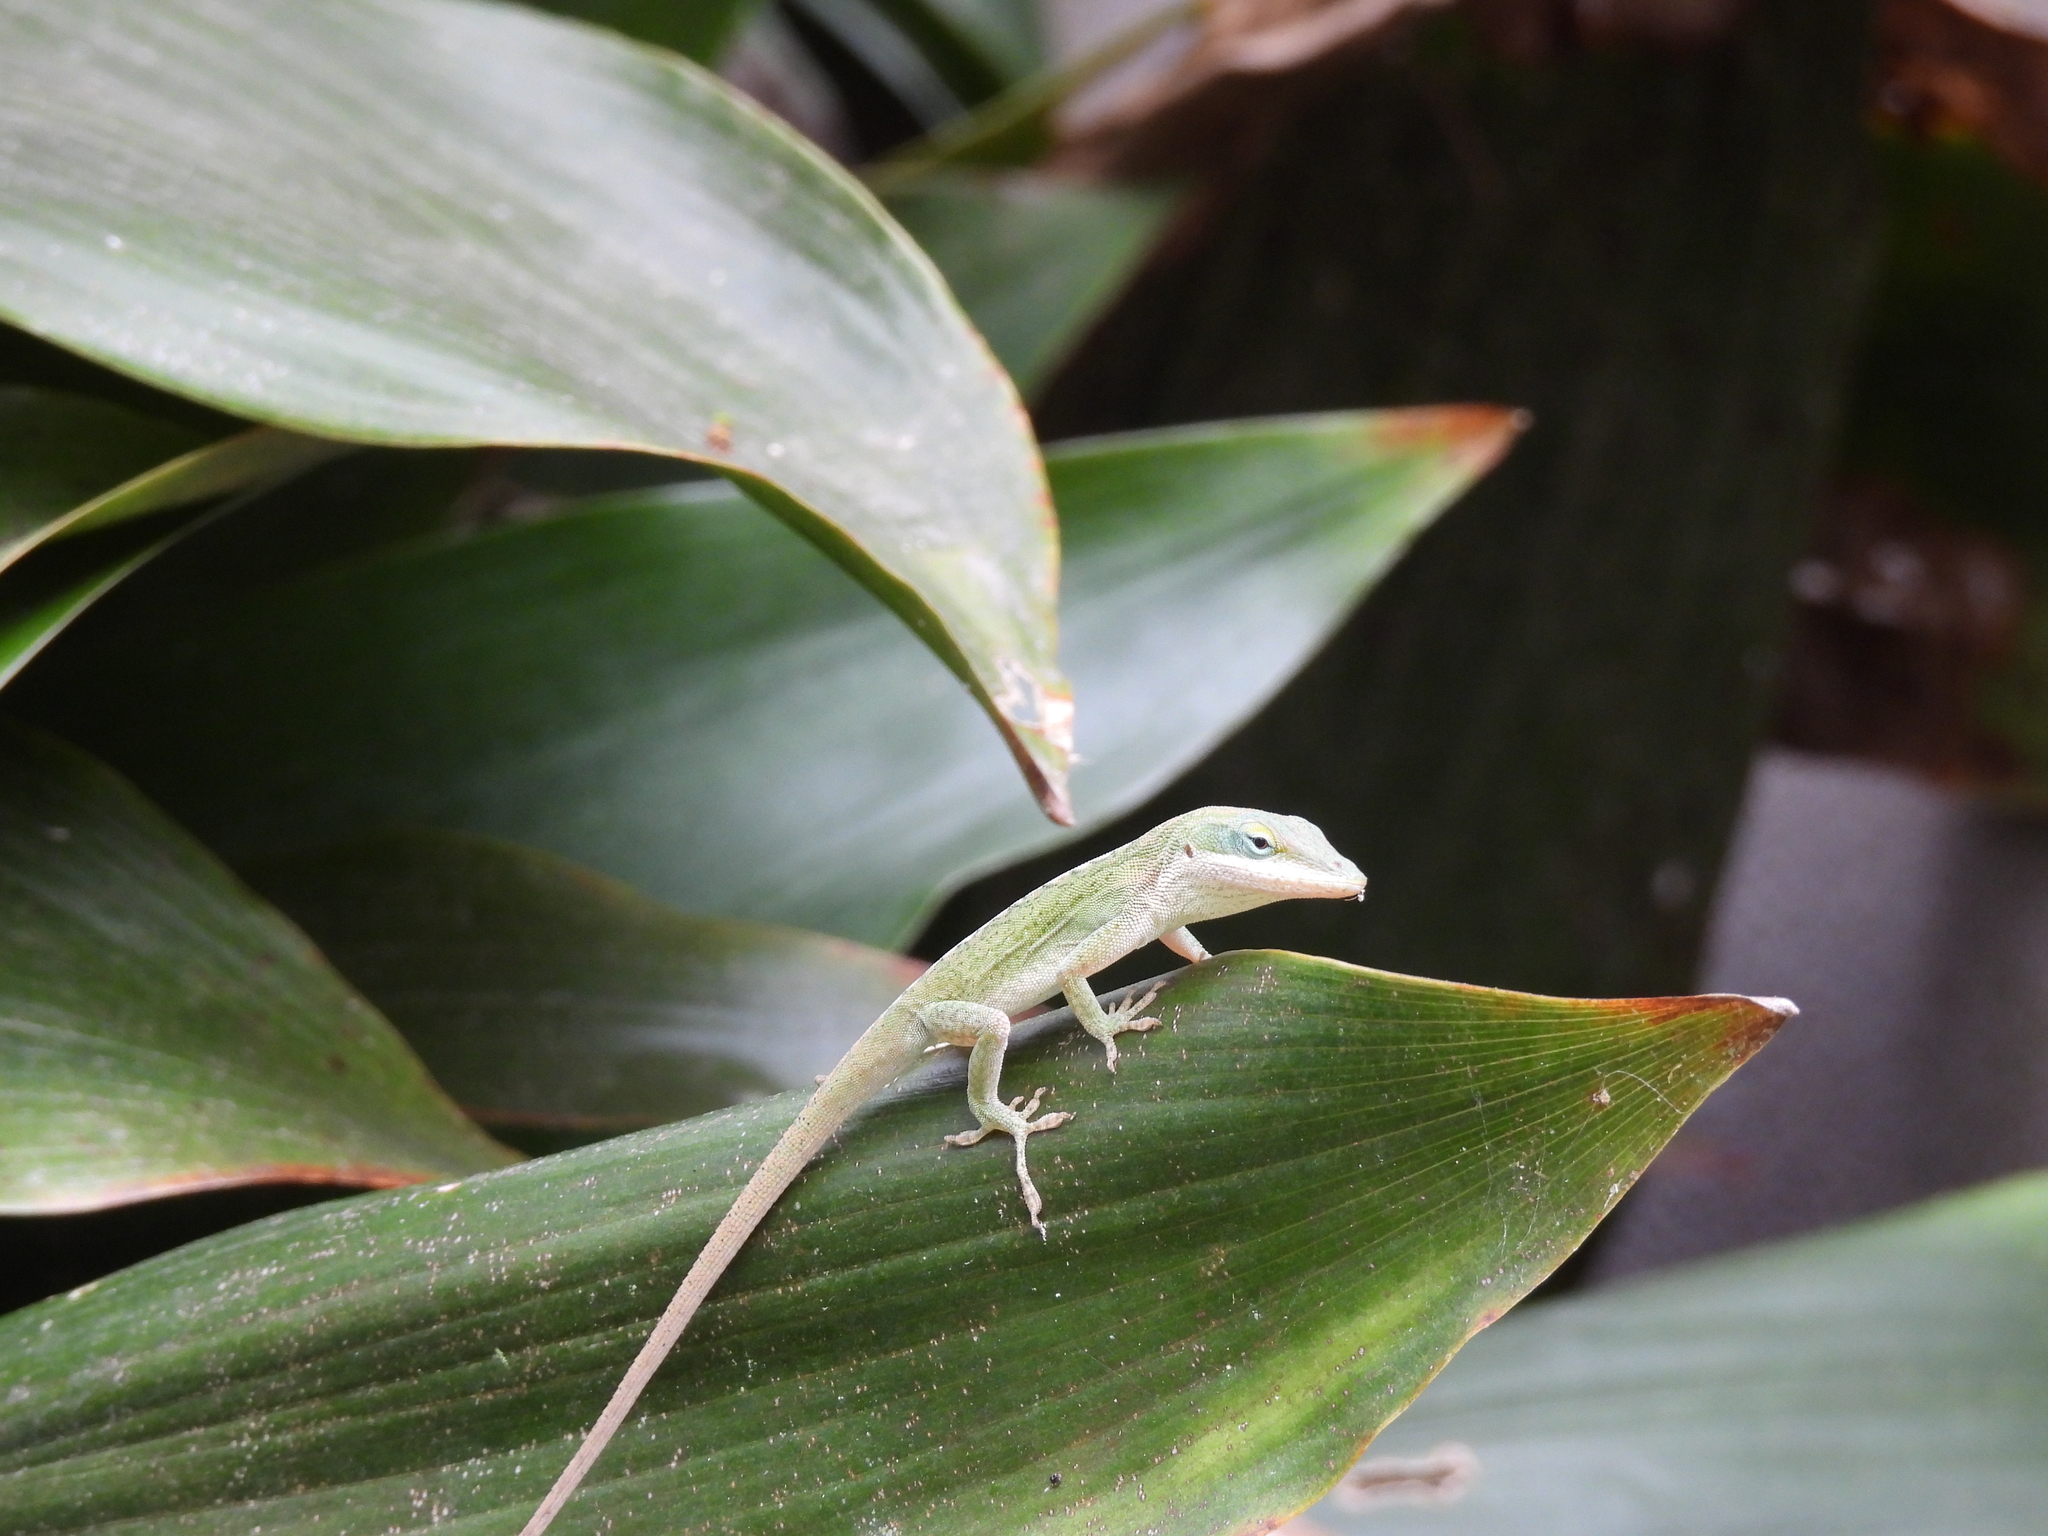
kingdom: Animalia
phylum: Chordata
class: Squamata
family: Dactyloidae
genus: Anolis
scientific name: Anolis carolinensis
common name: Green anole
